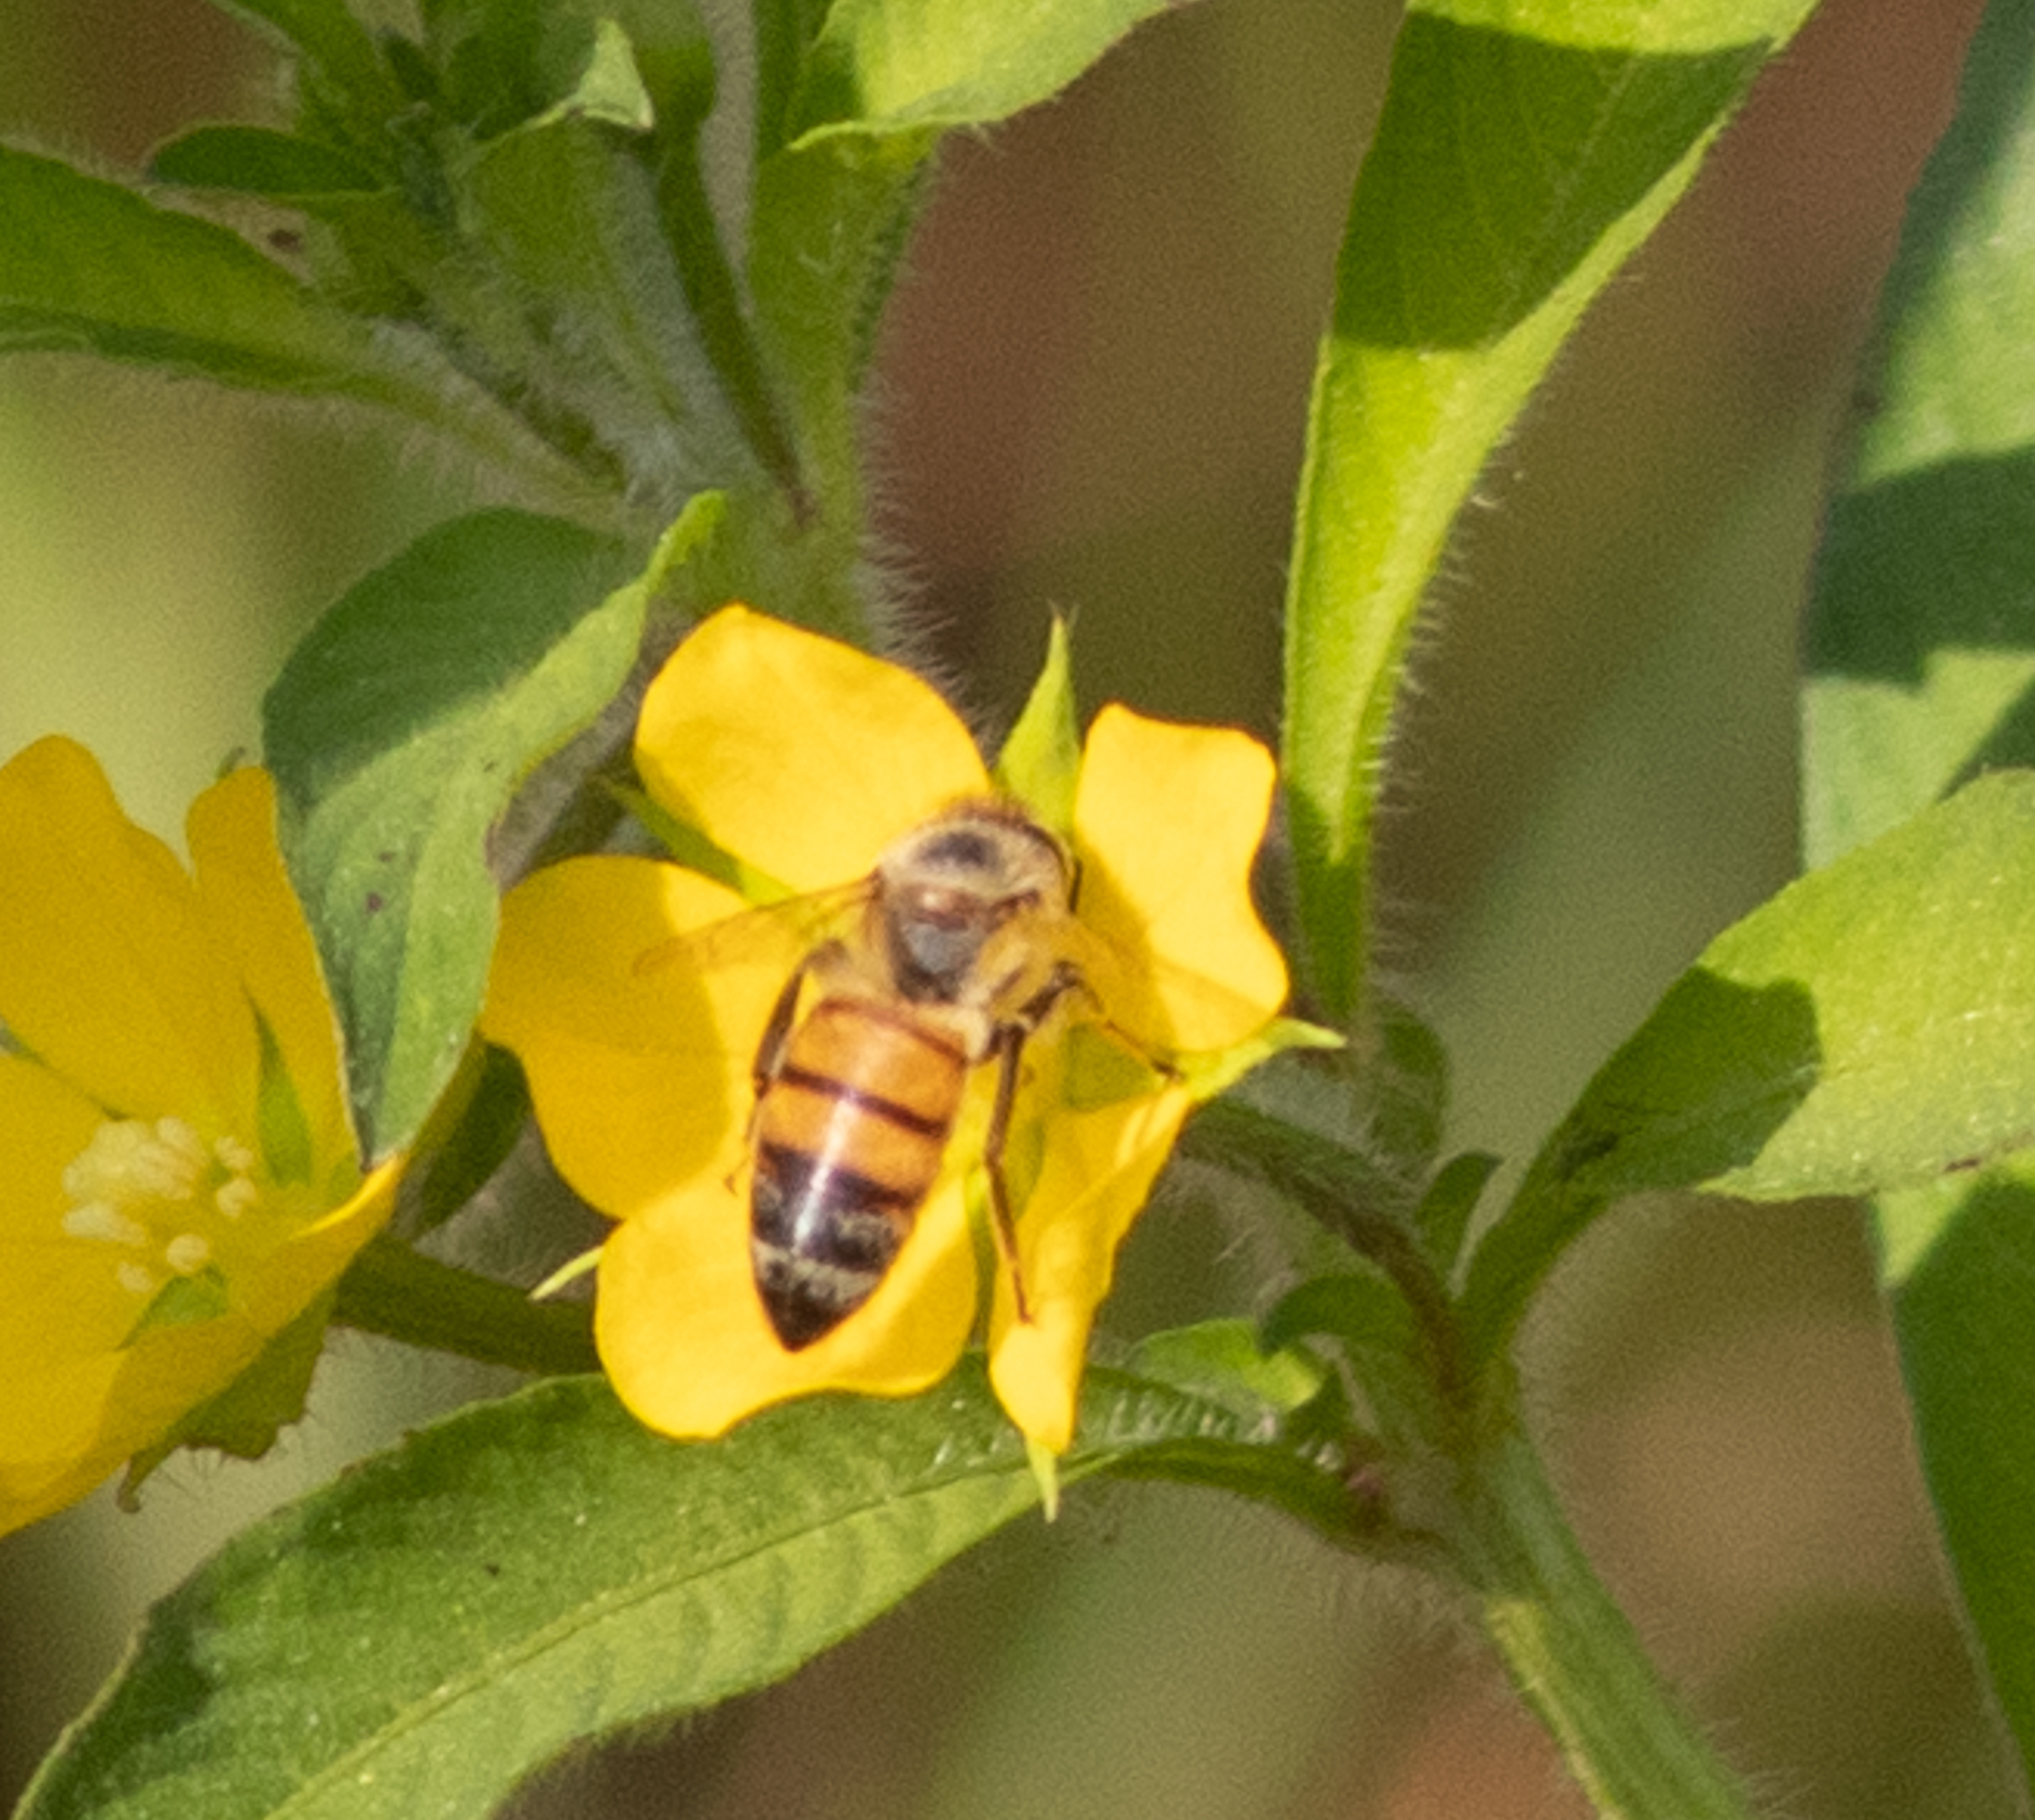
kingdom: Animalia
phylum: Arthropoda
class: Insecta
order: Hymenoptera
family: Apidae
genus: Apis
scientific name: Apis mellifera
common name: Honey bee
